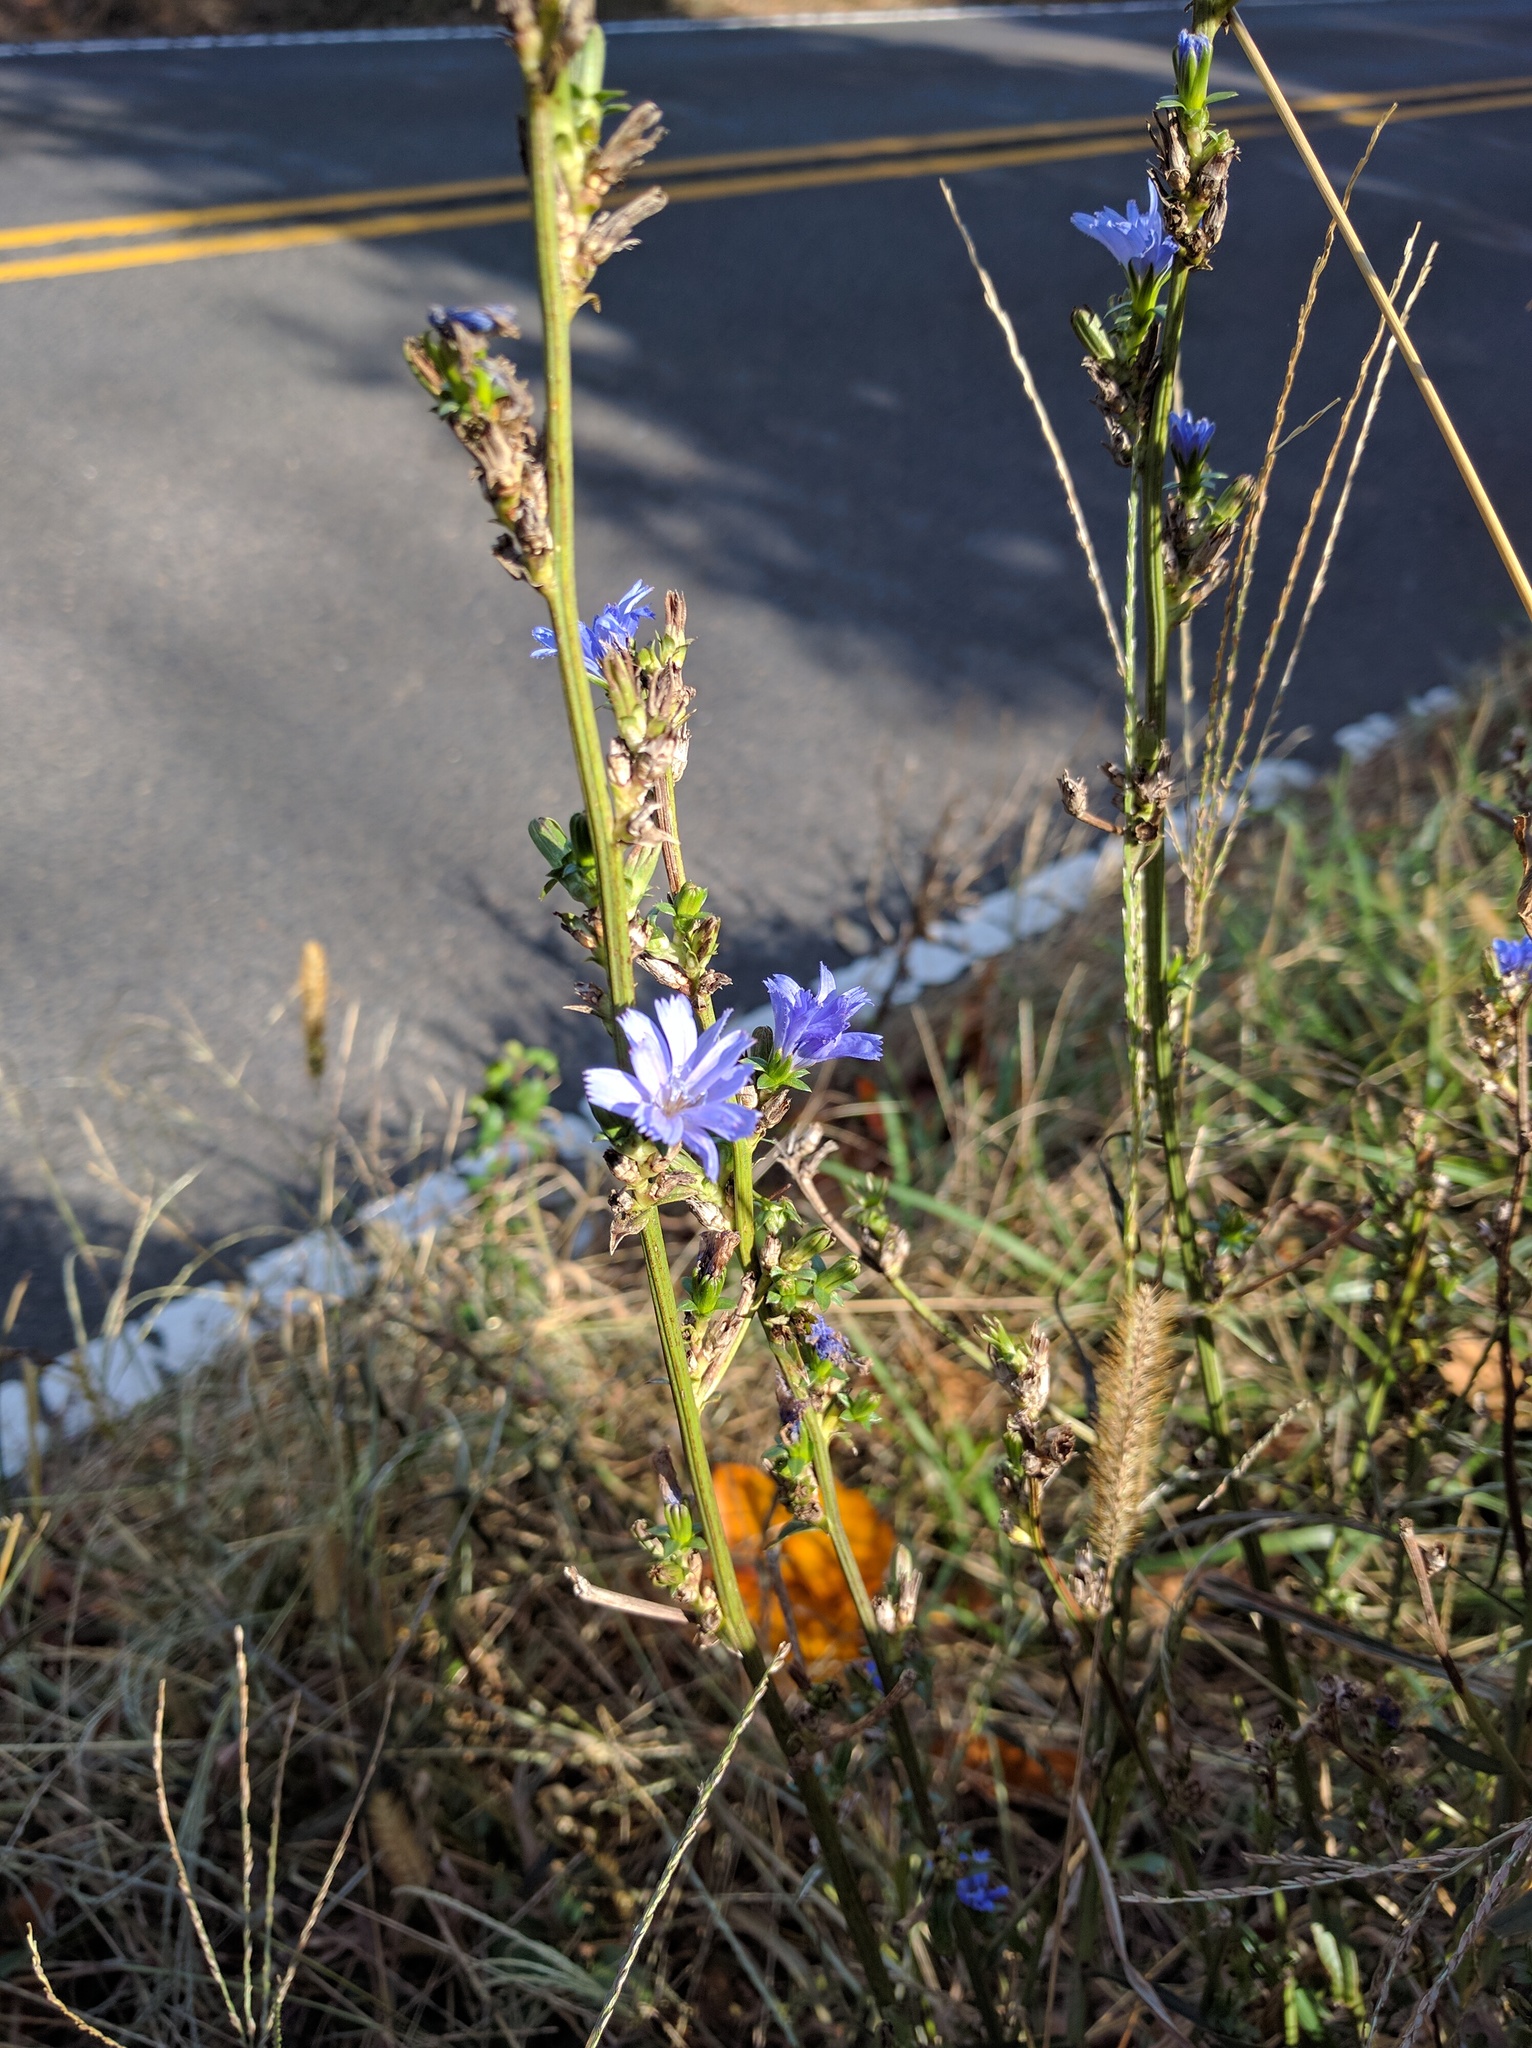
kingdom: Plantae
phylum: Tracheophyta
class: Magnoliopsida
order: Asterales
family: Asteraceae
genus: Cichorium
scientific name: Cichorium intybus
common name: Chicory
